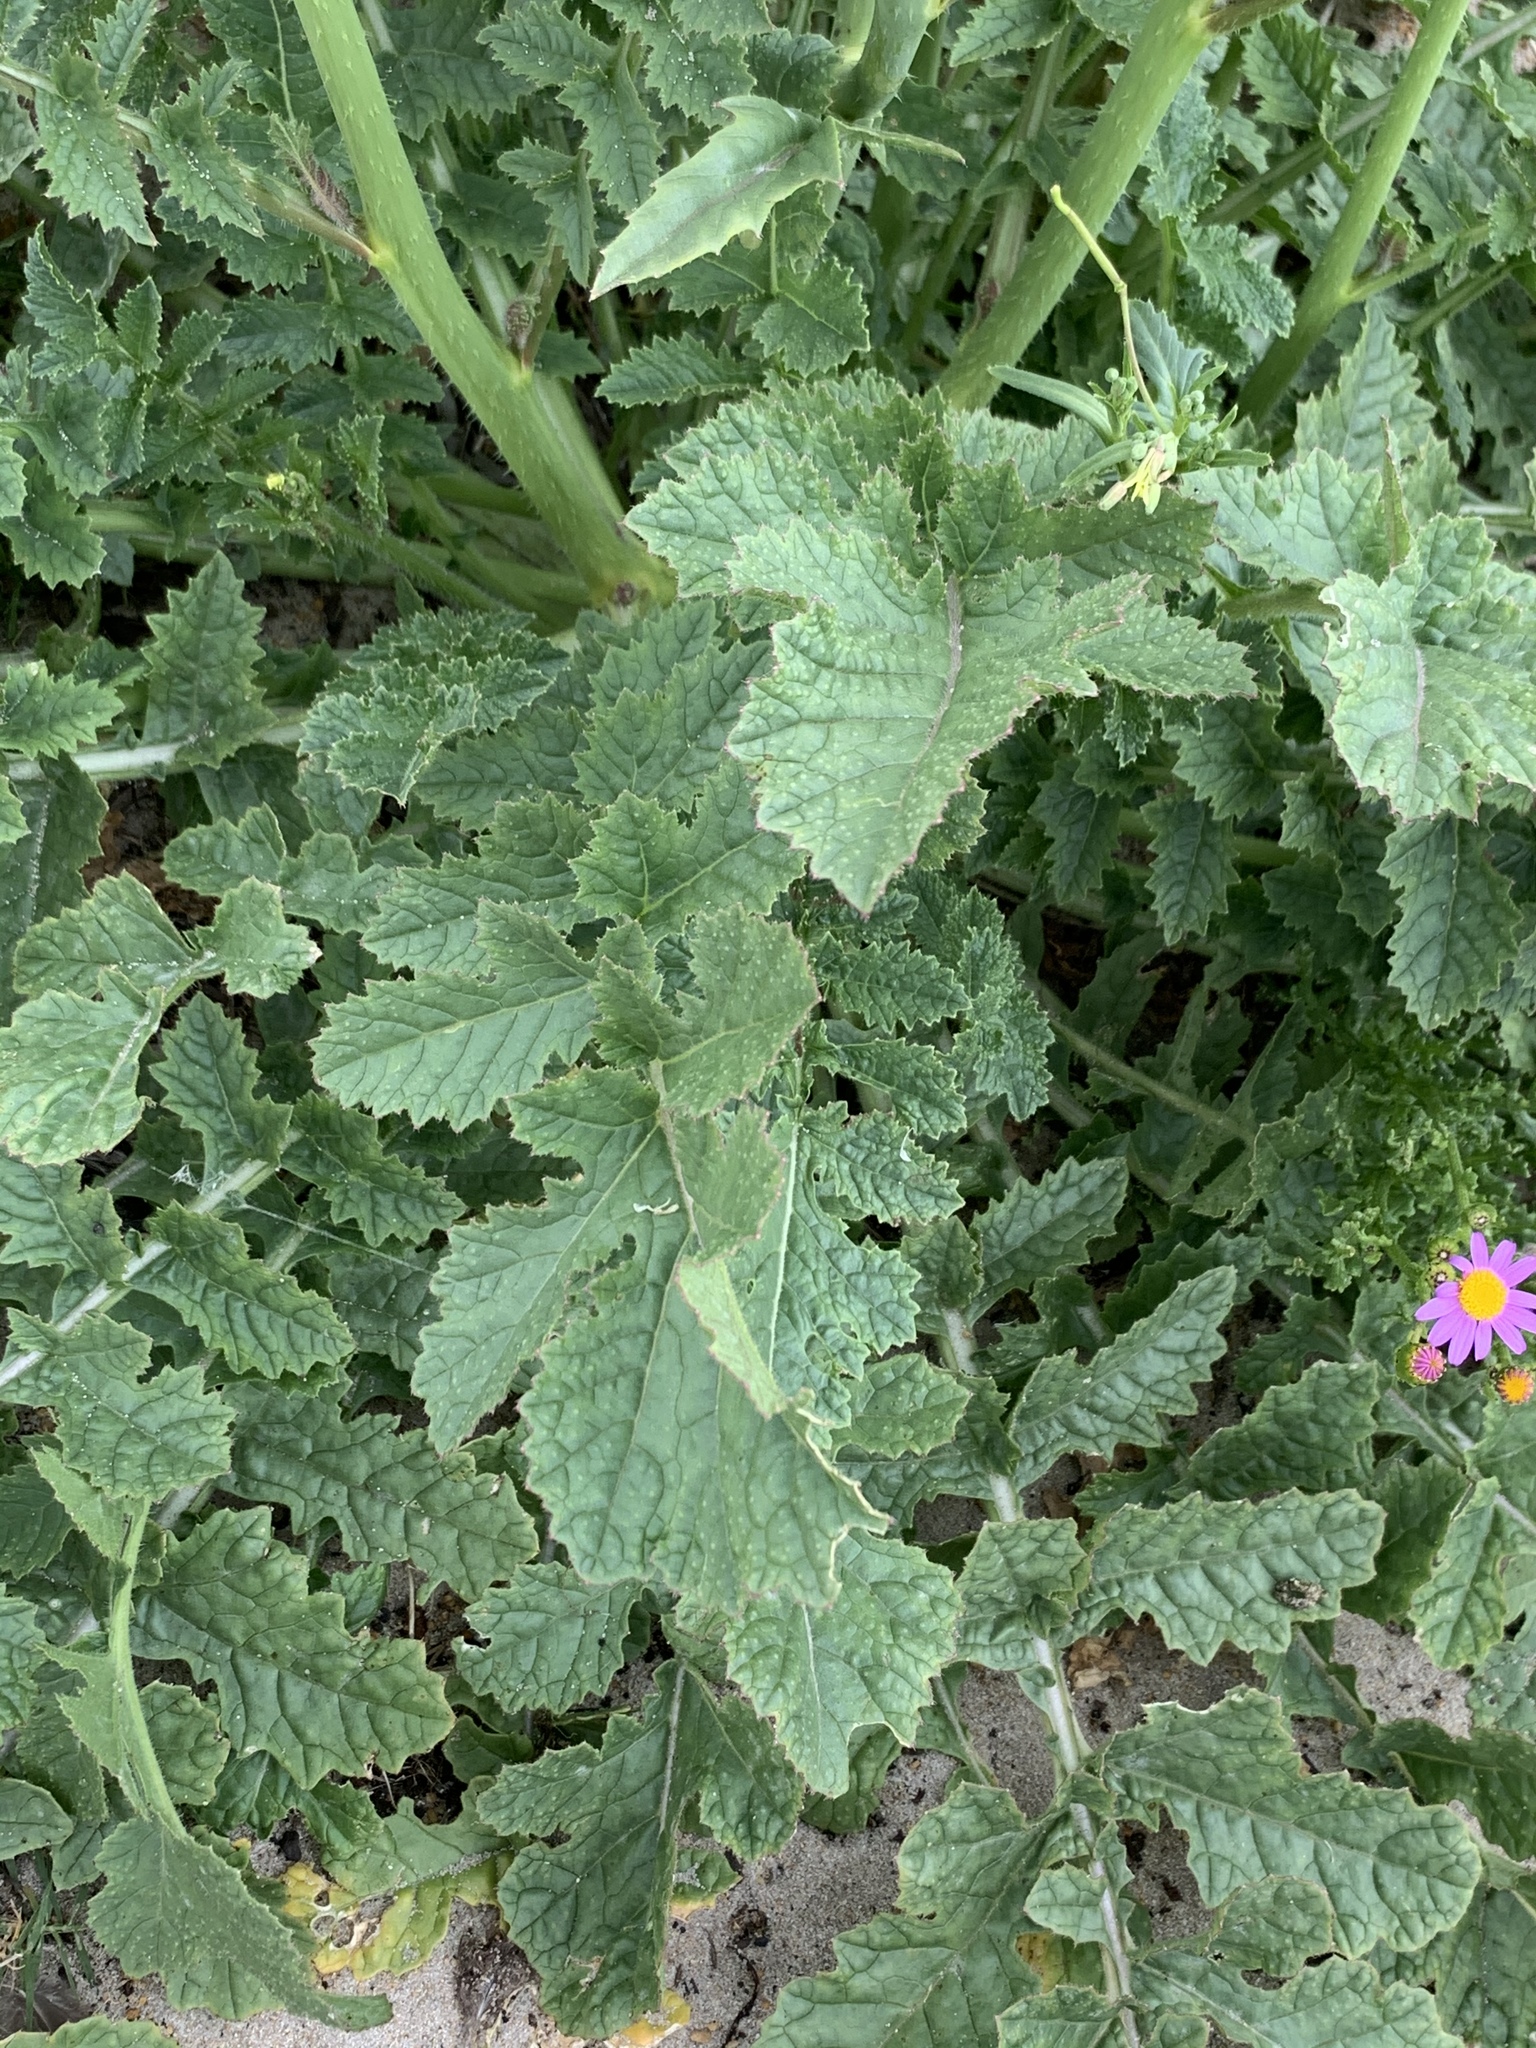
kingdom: Plantae
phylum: Tracheophyta
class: Magnoliopsida
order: Brassicales
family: Brassicaceae
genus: Brassica
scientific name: Brassica tournefortii
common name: Pale cabbage
